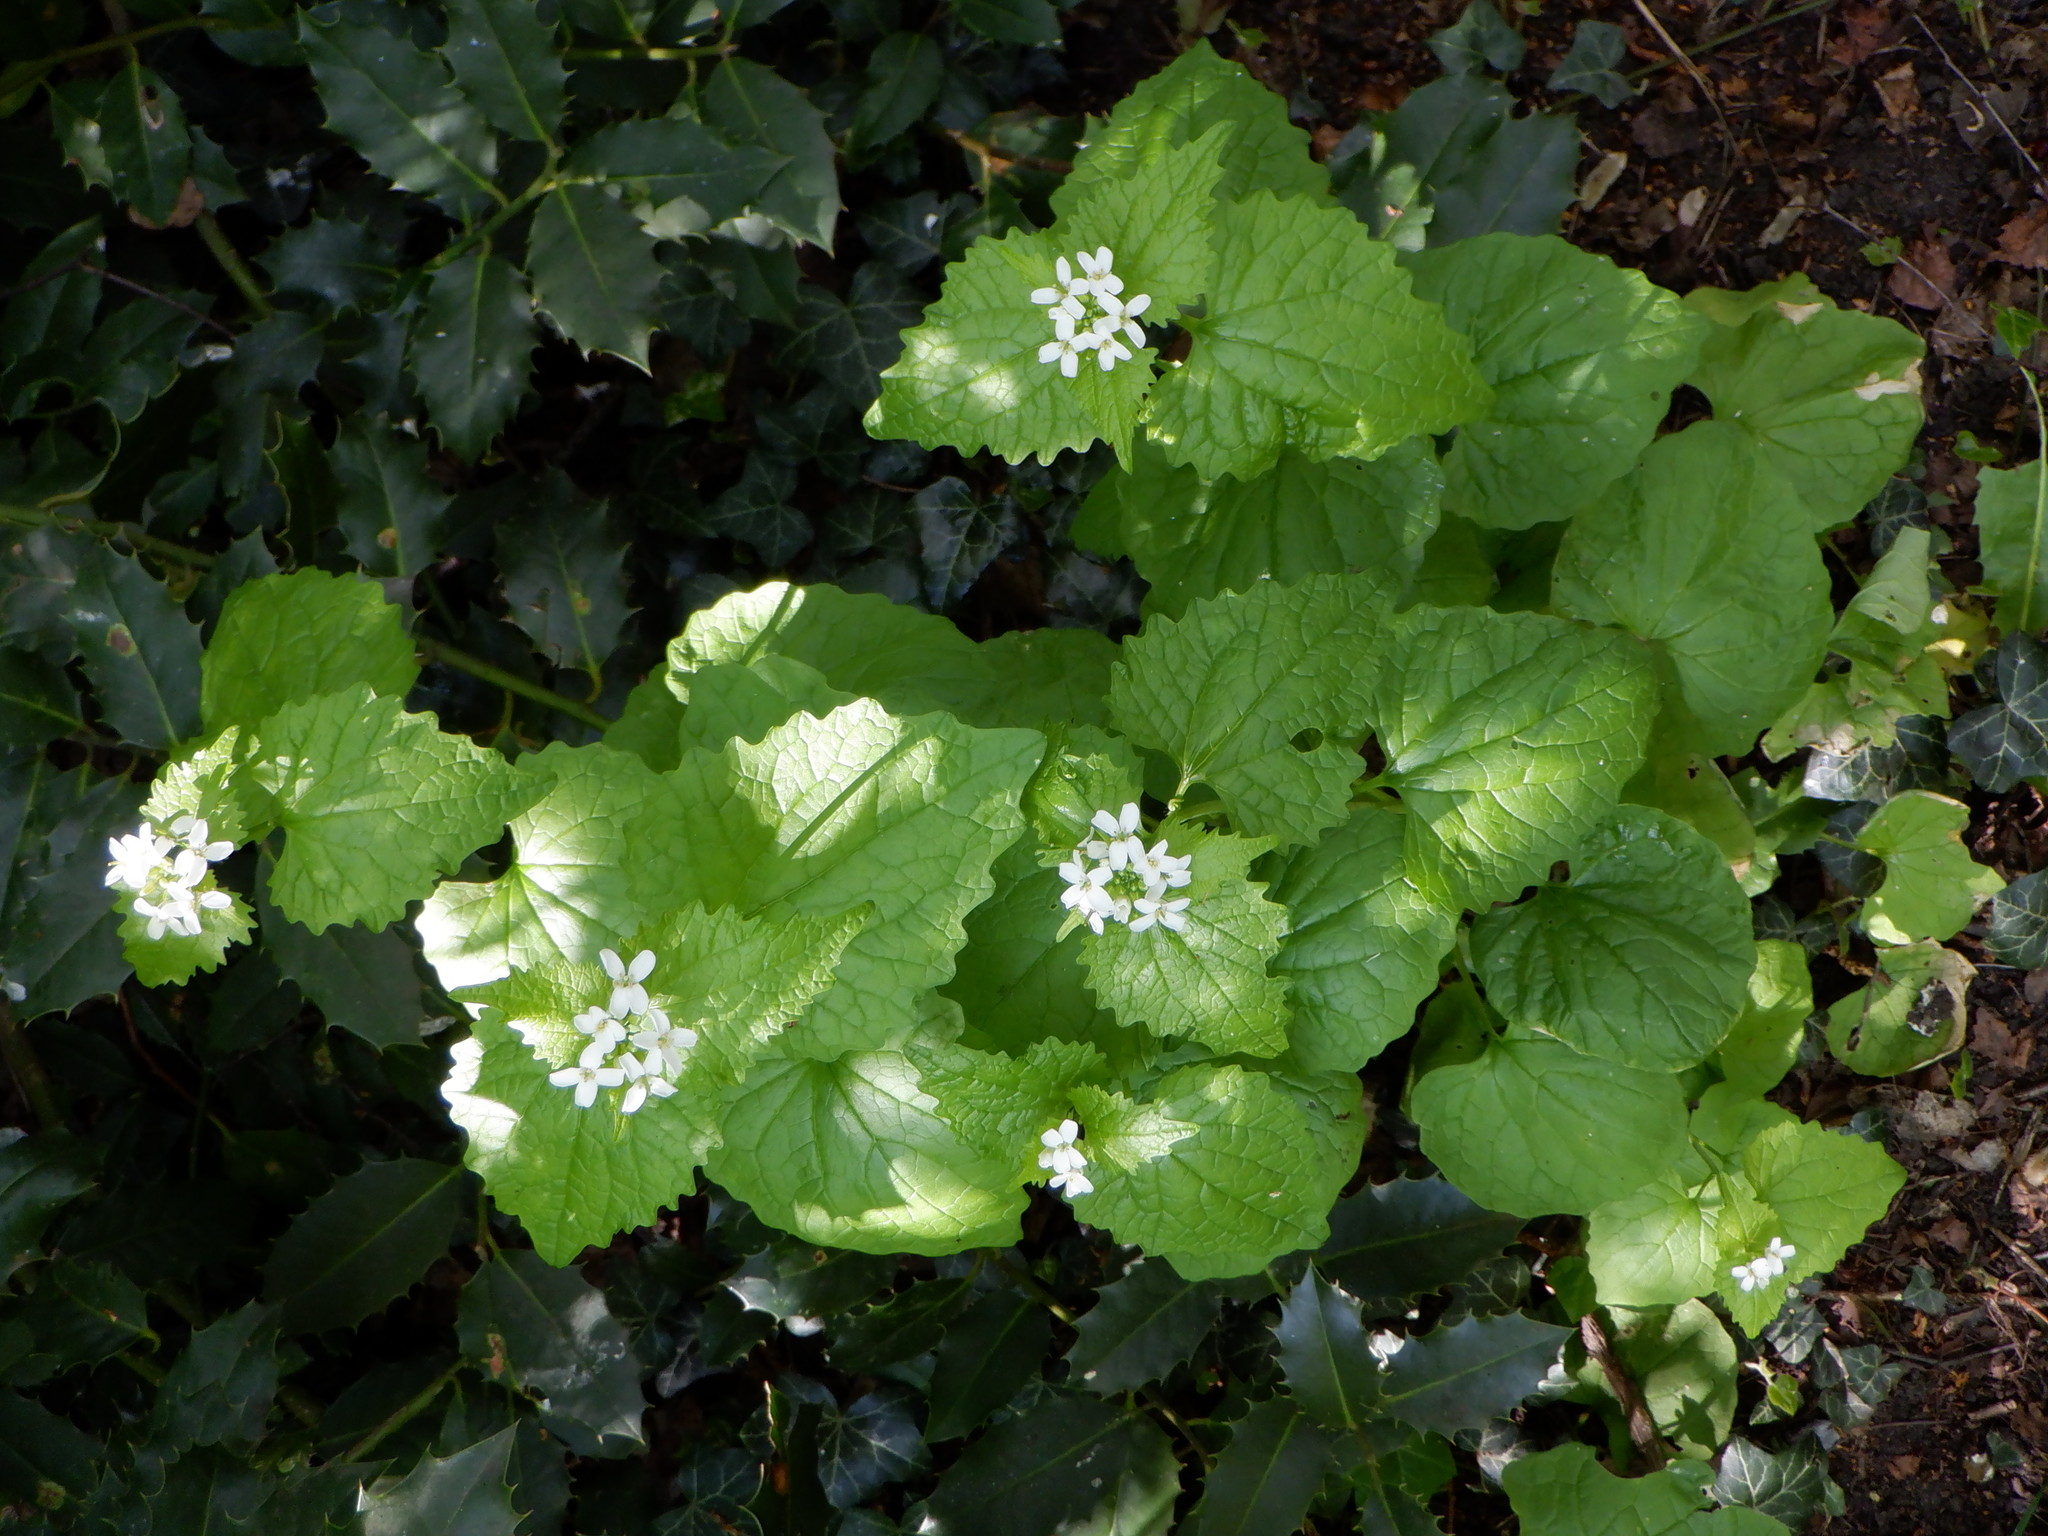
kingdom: Plantae
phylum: Tracheophyta
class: Magnoliopsida
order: Brassicales
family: Brassicaceae
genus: Alliaria
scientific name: Alliaria petiolata
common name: Garlic mustard
